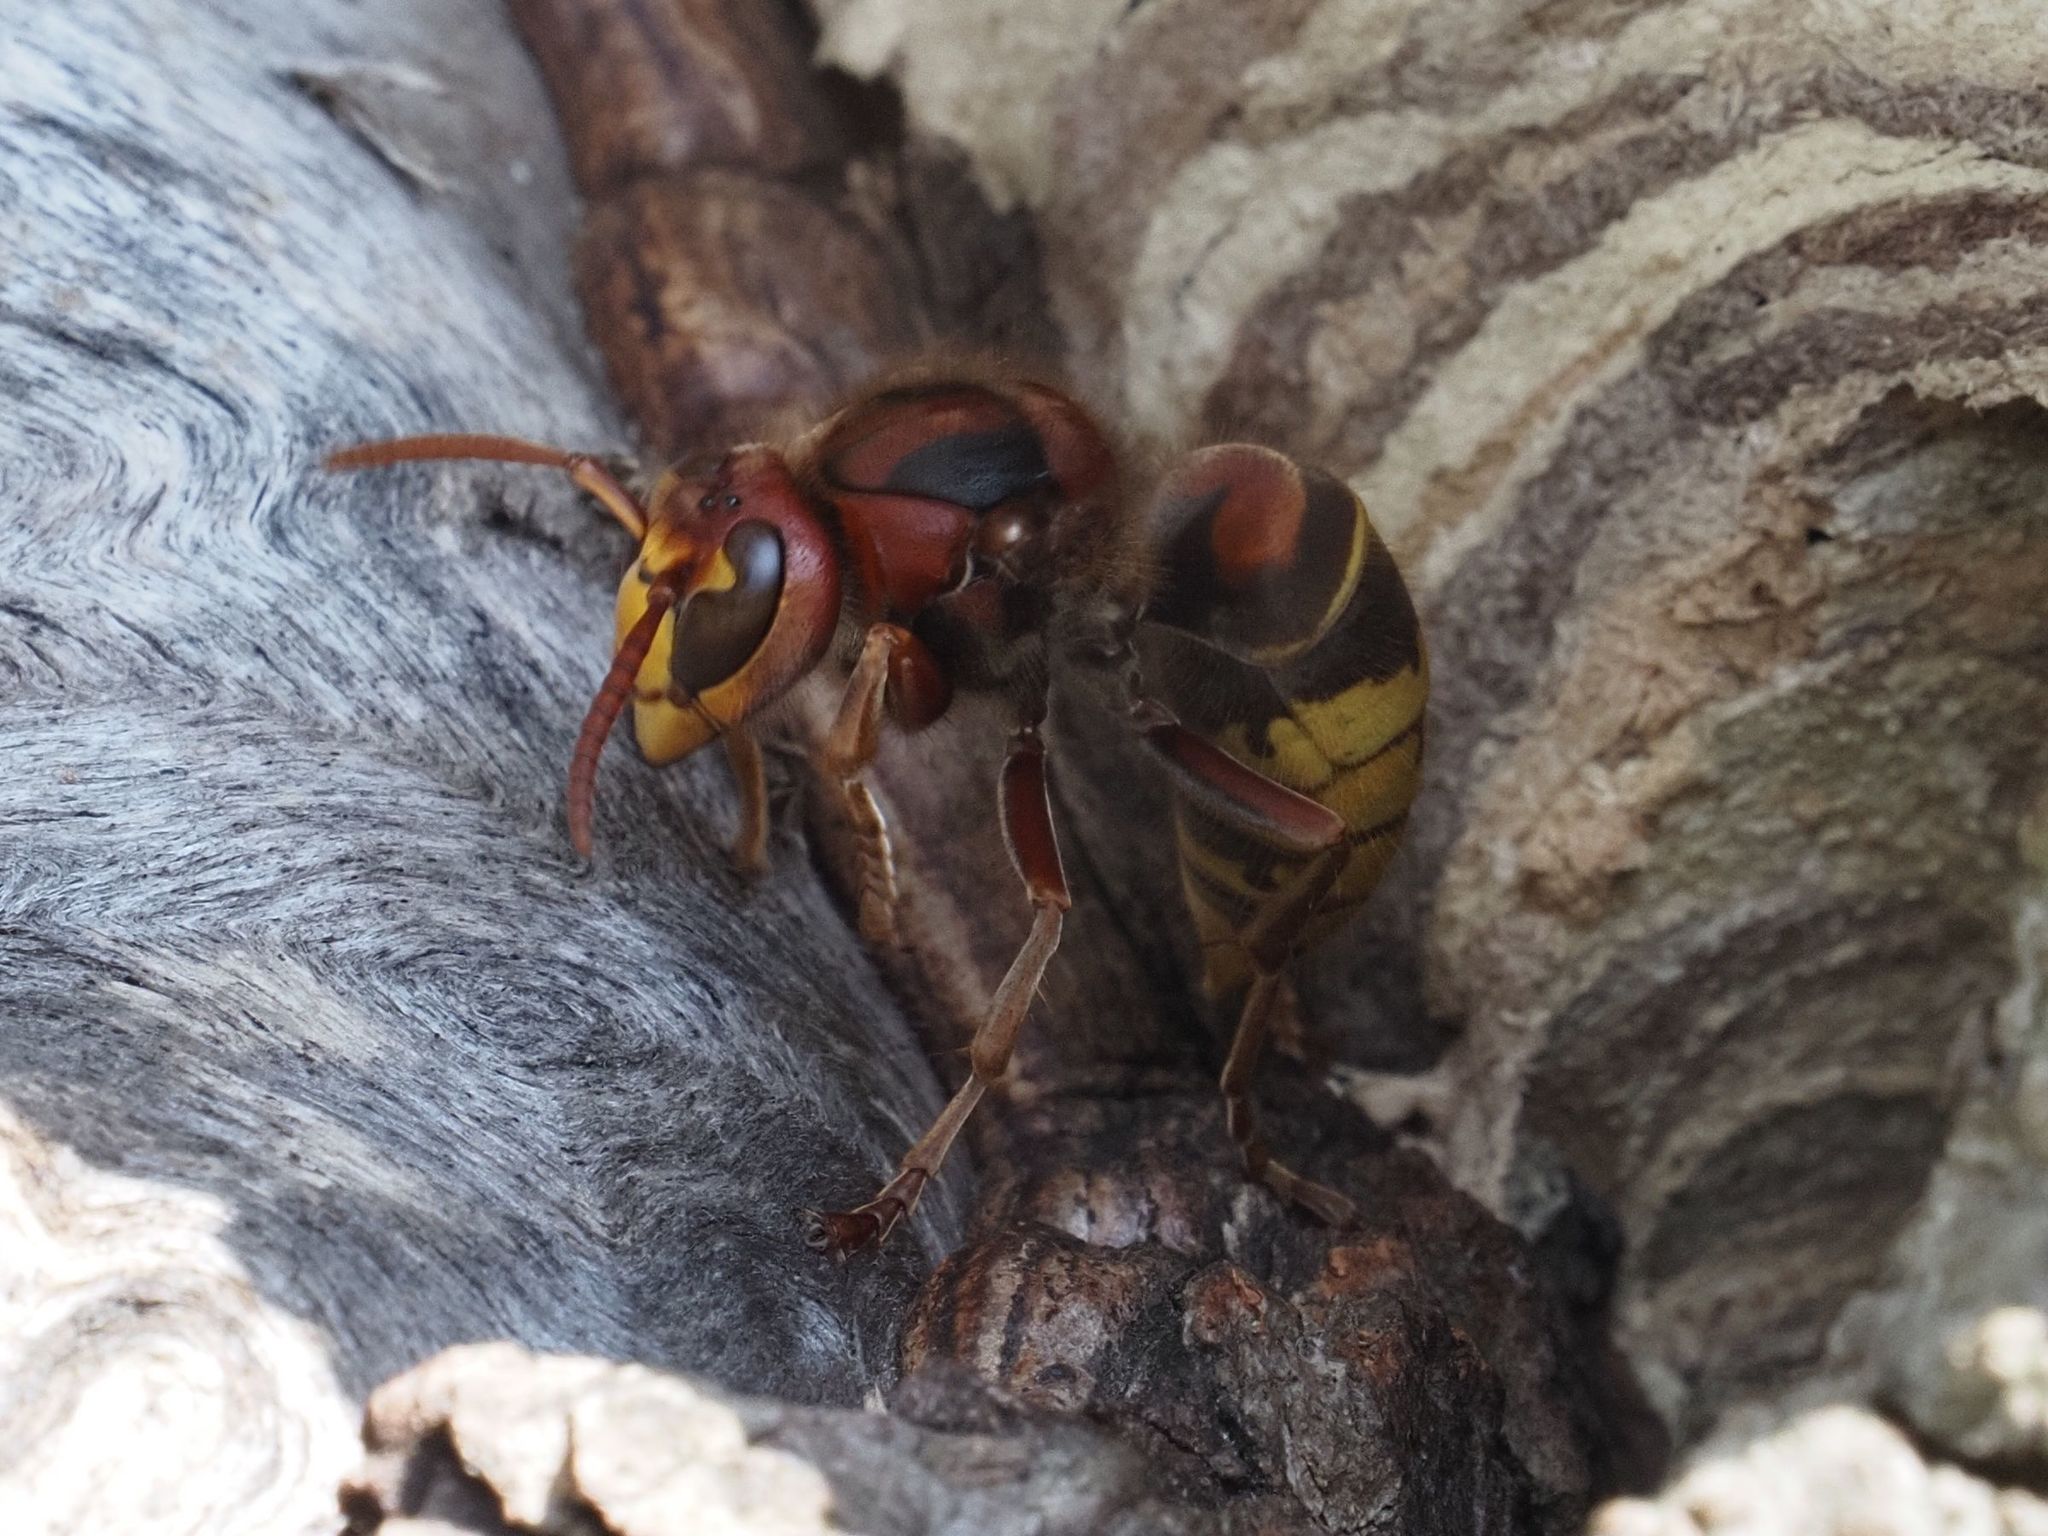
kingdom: Animalia
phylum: Arthropoda
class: Insecta
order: Hymenoptera
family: Vespidae
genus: Vespa
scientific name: Vespa crabro
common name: Hornet
